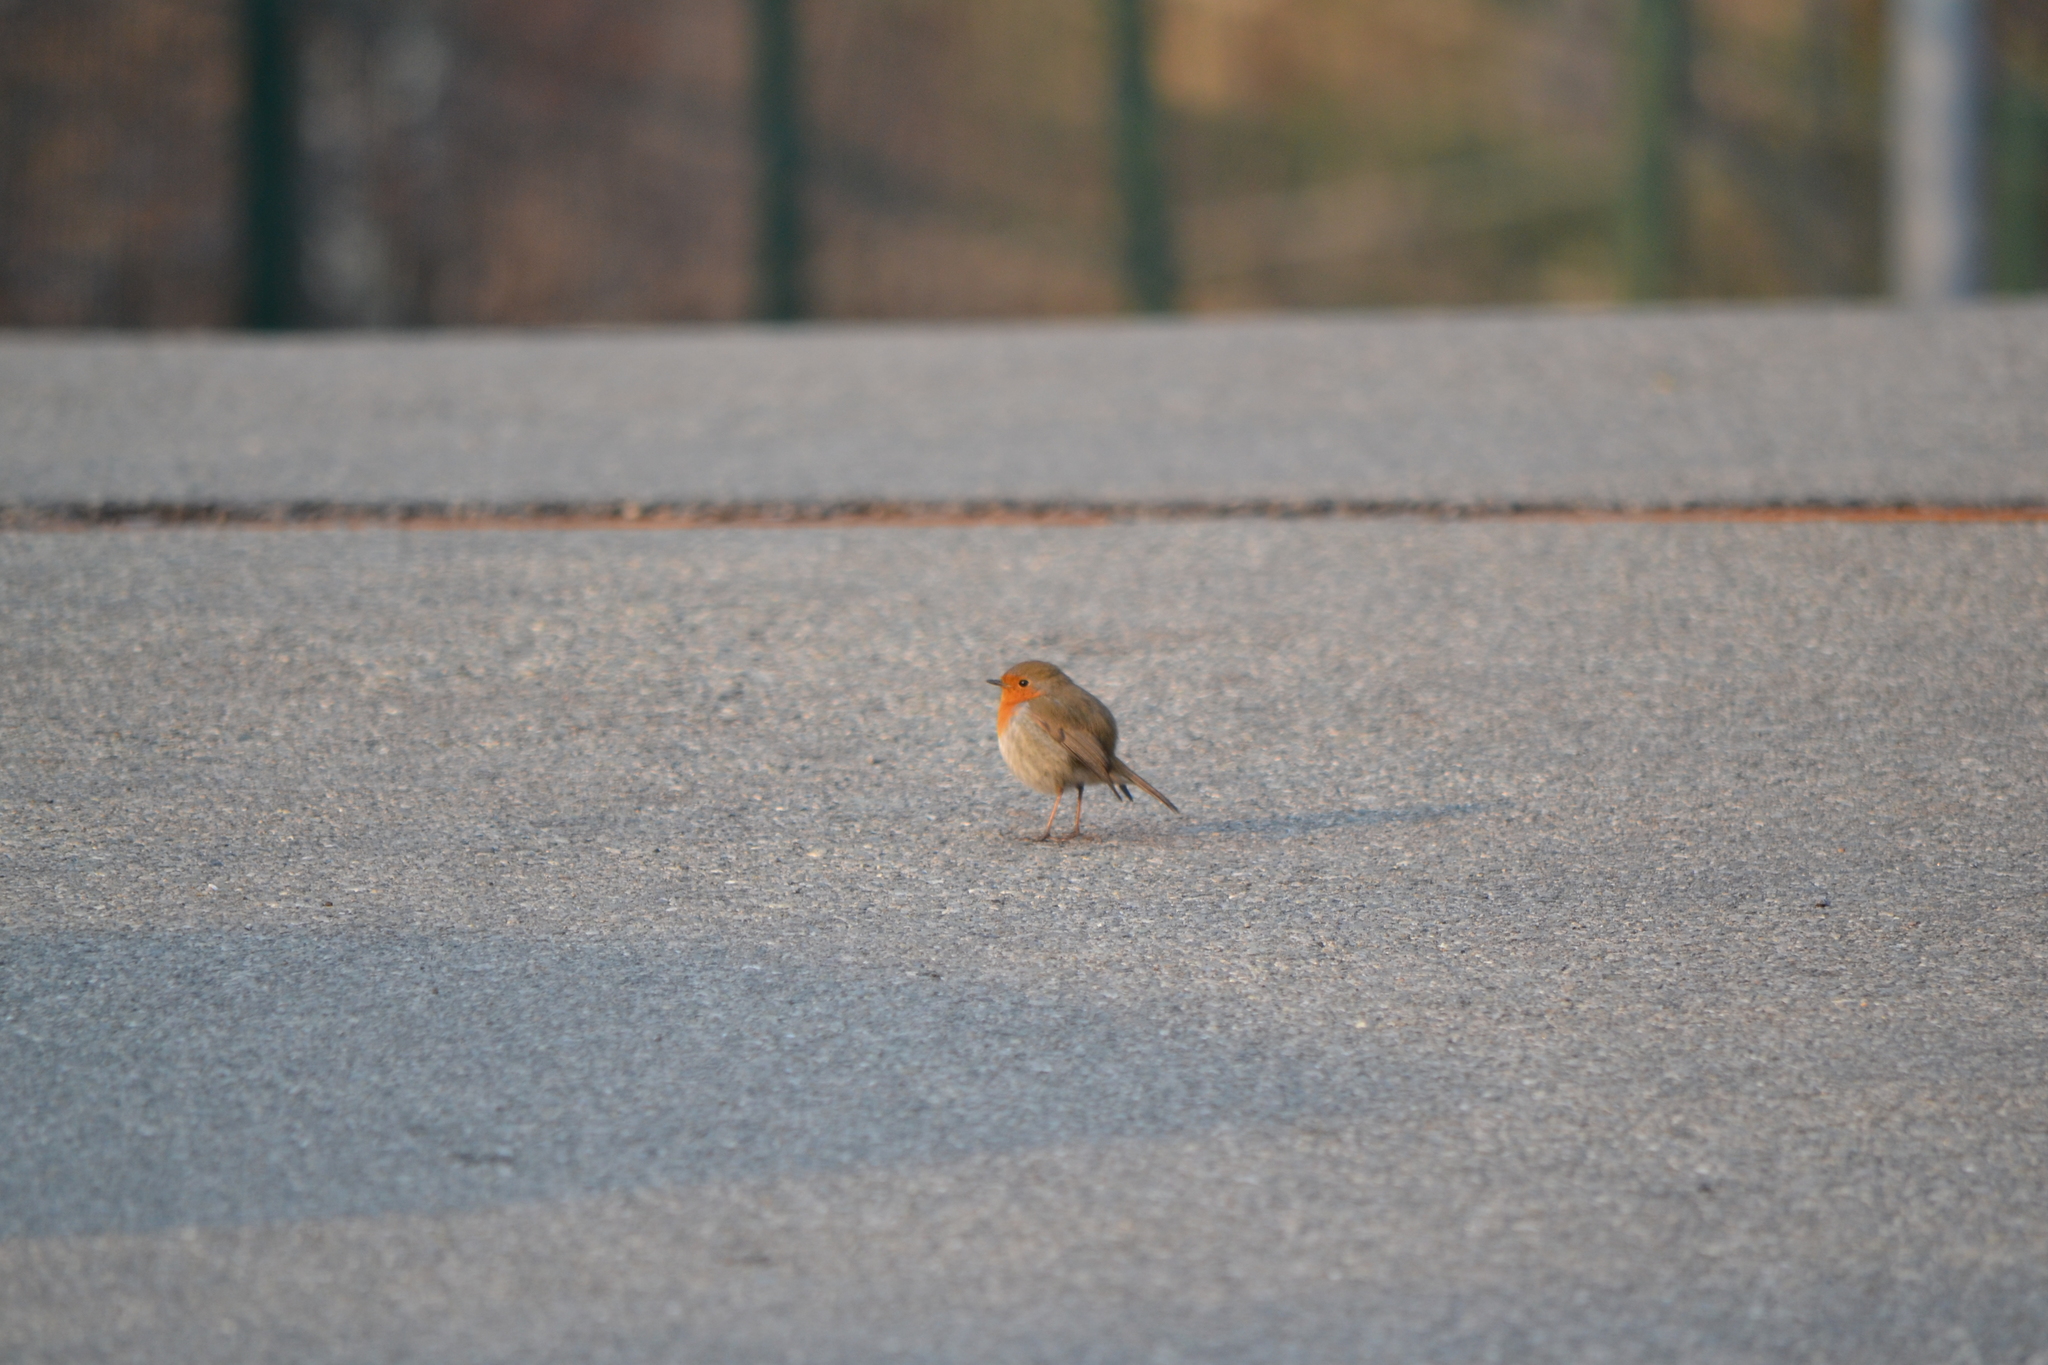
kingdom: Animalia
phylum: Chordata
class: Aves
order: Passeriformes
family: Muscicapidae
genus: Erithacus
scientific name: Erithacus rubecula
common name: European robin
